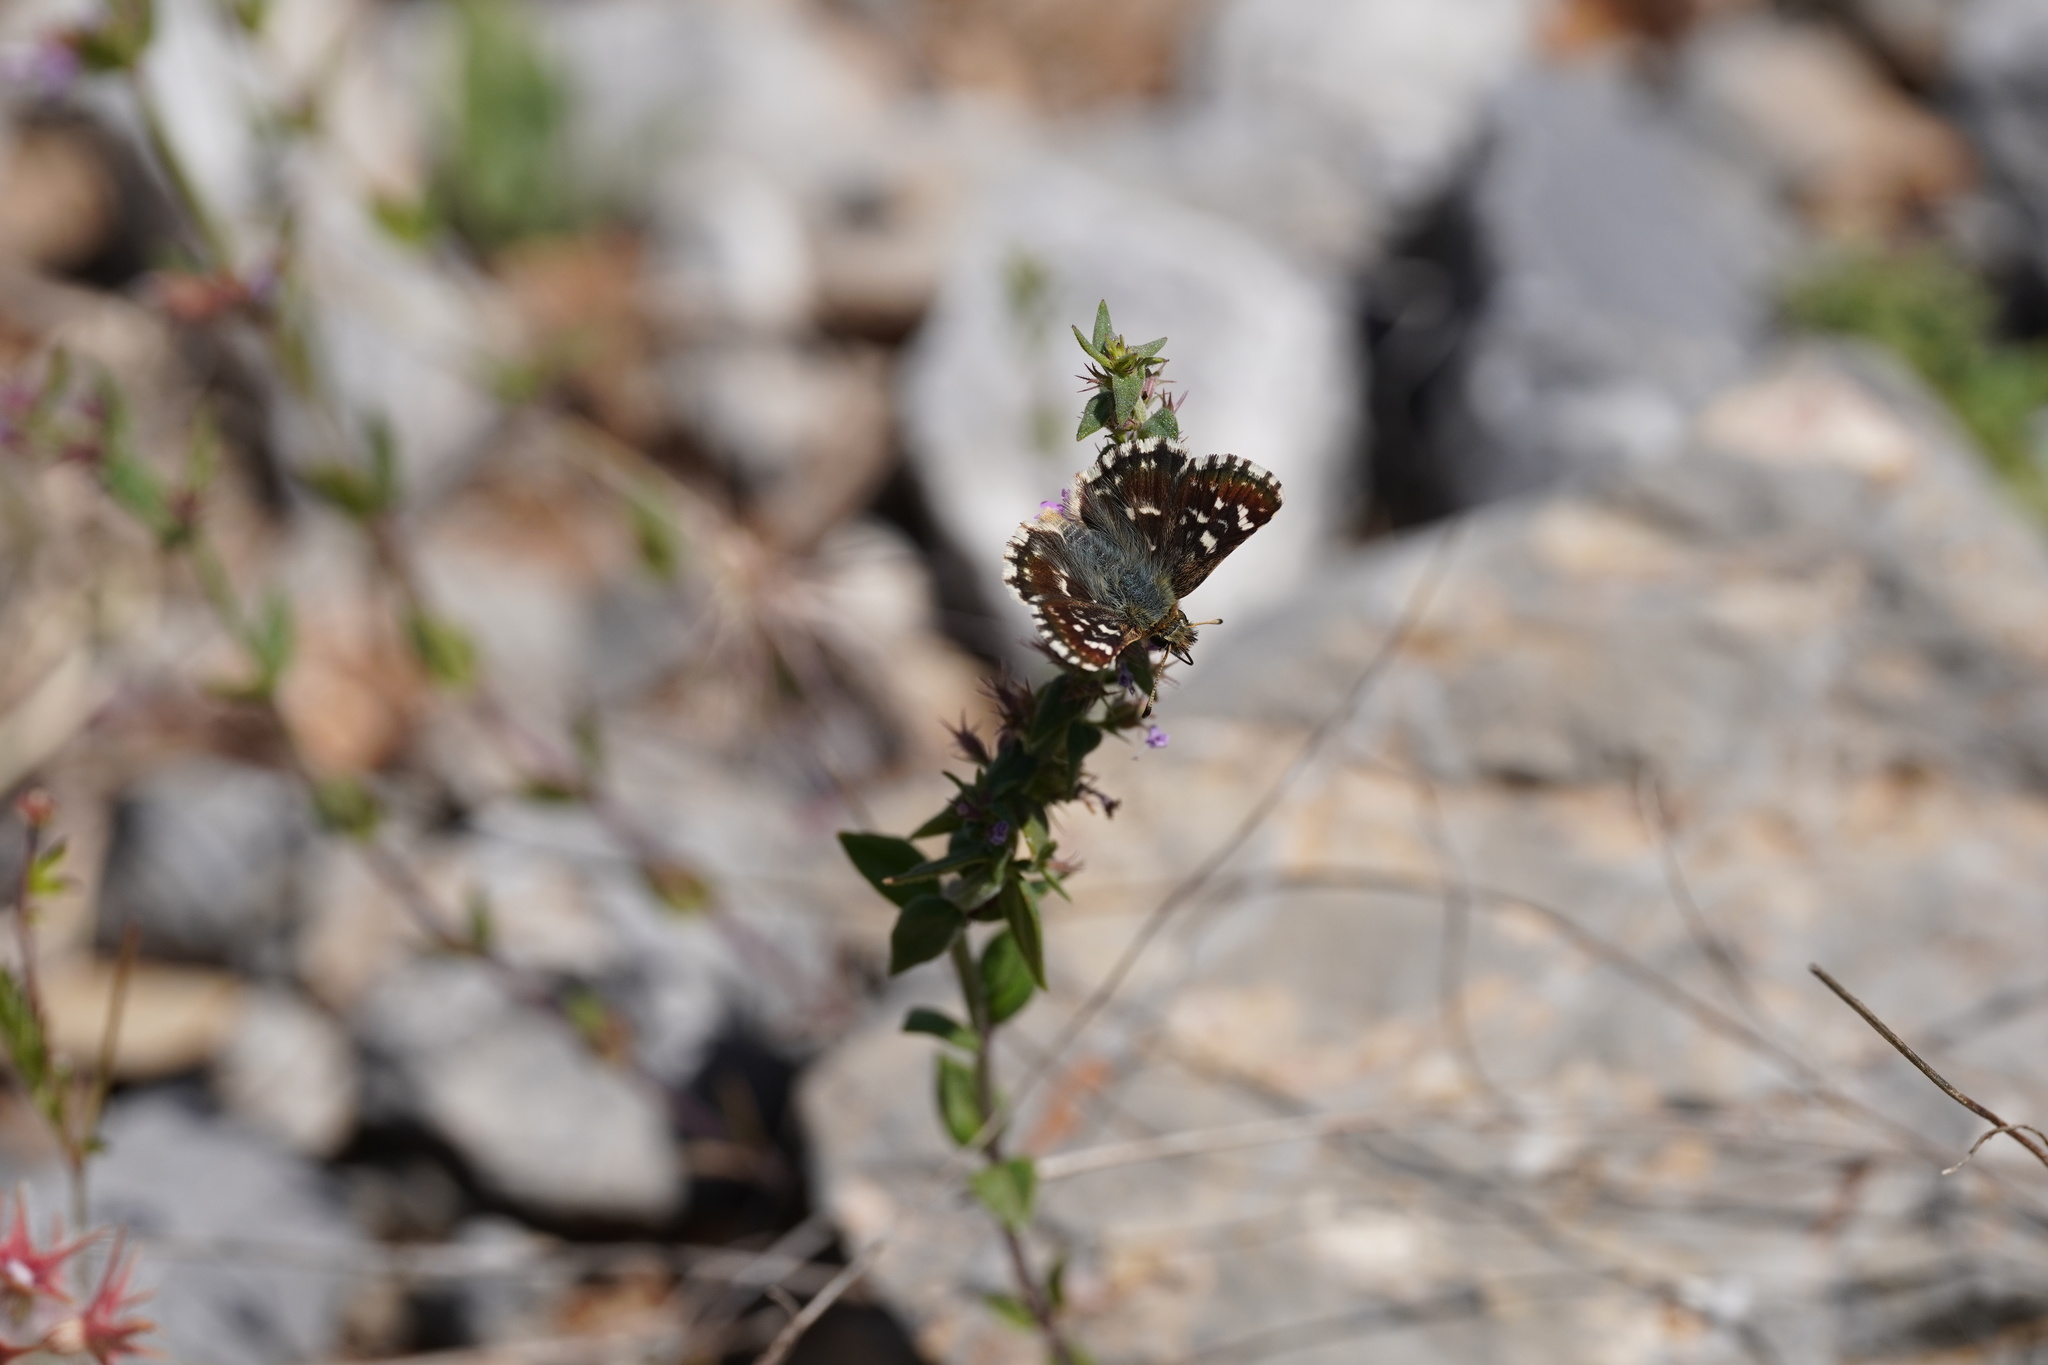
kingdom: Animalia
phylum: Arthropoda
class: Insecta
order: Lepidoptera
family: Hesperiidae
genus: Spialia
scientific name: Spialia sertorius
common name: Red underwing skipper
